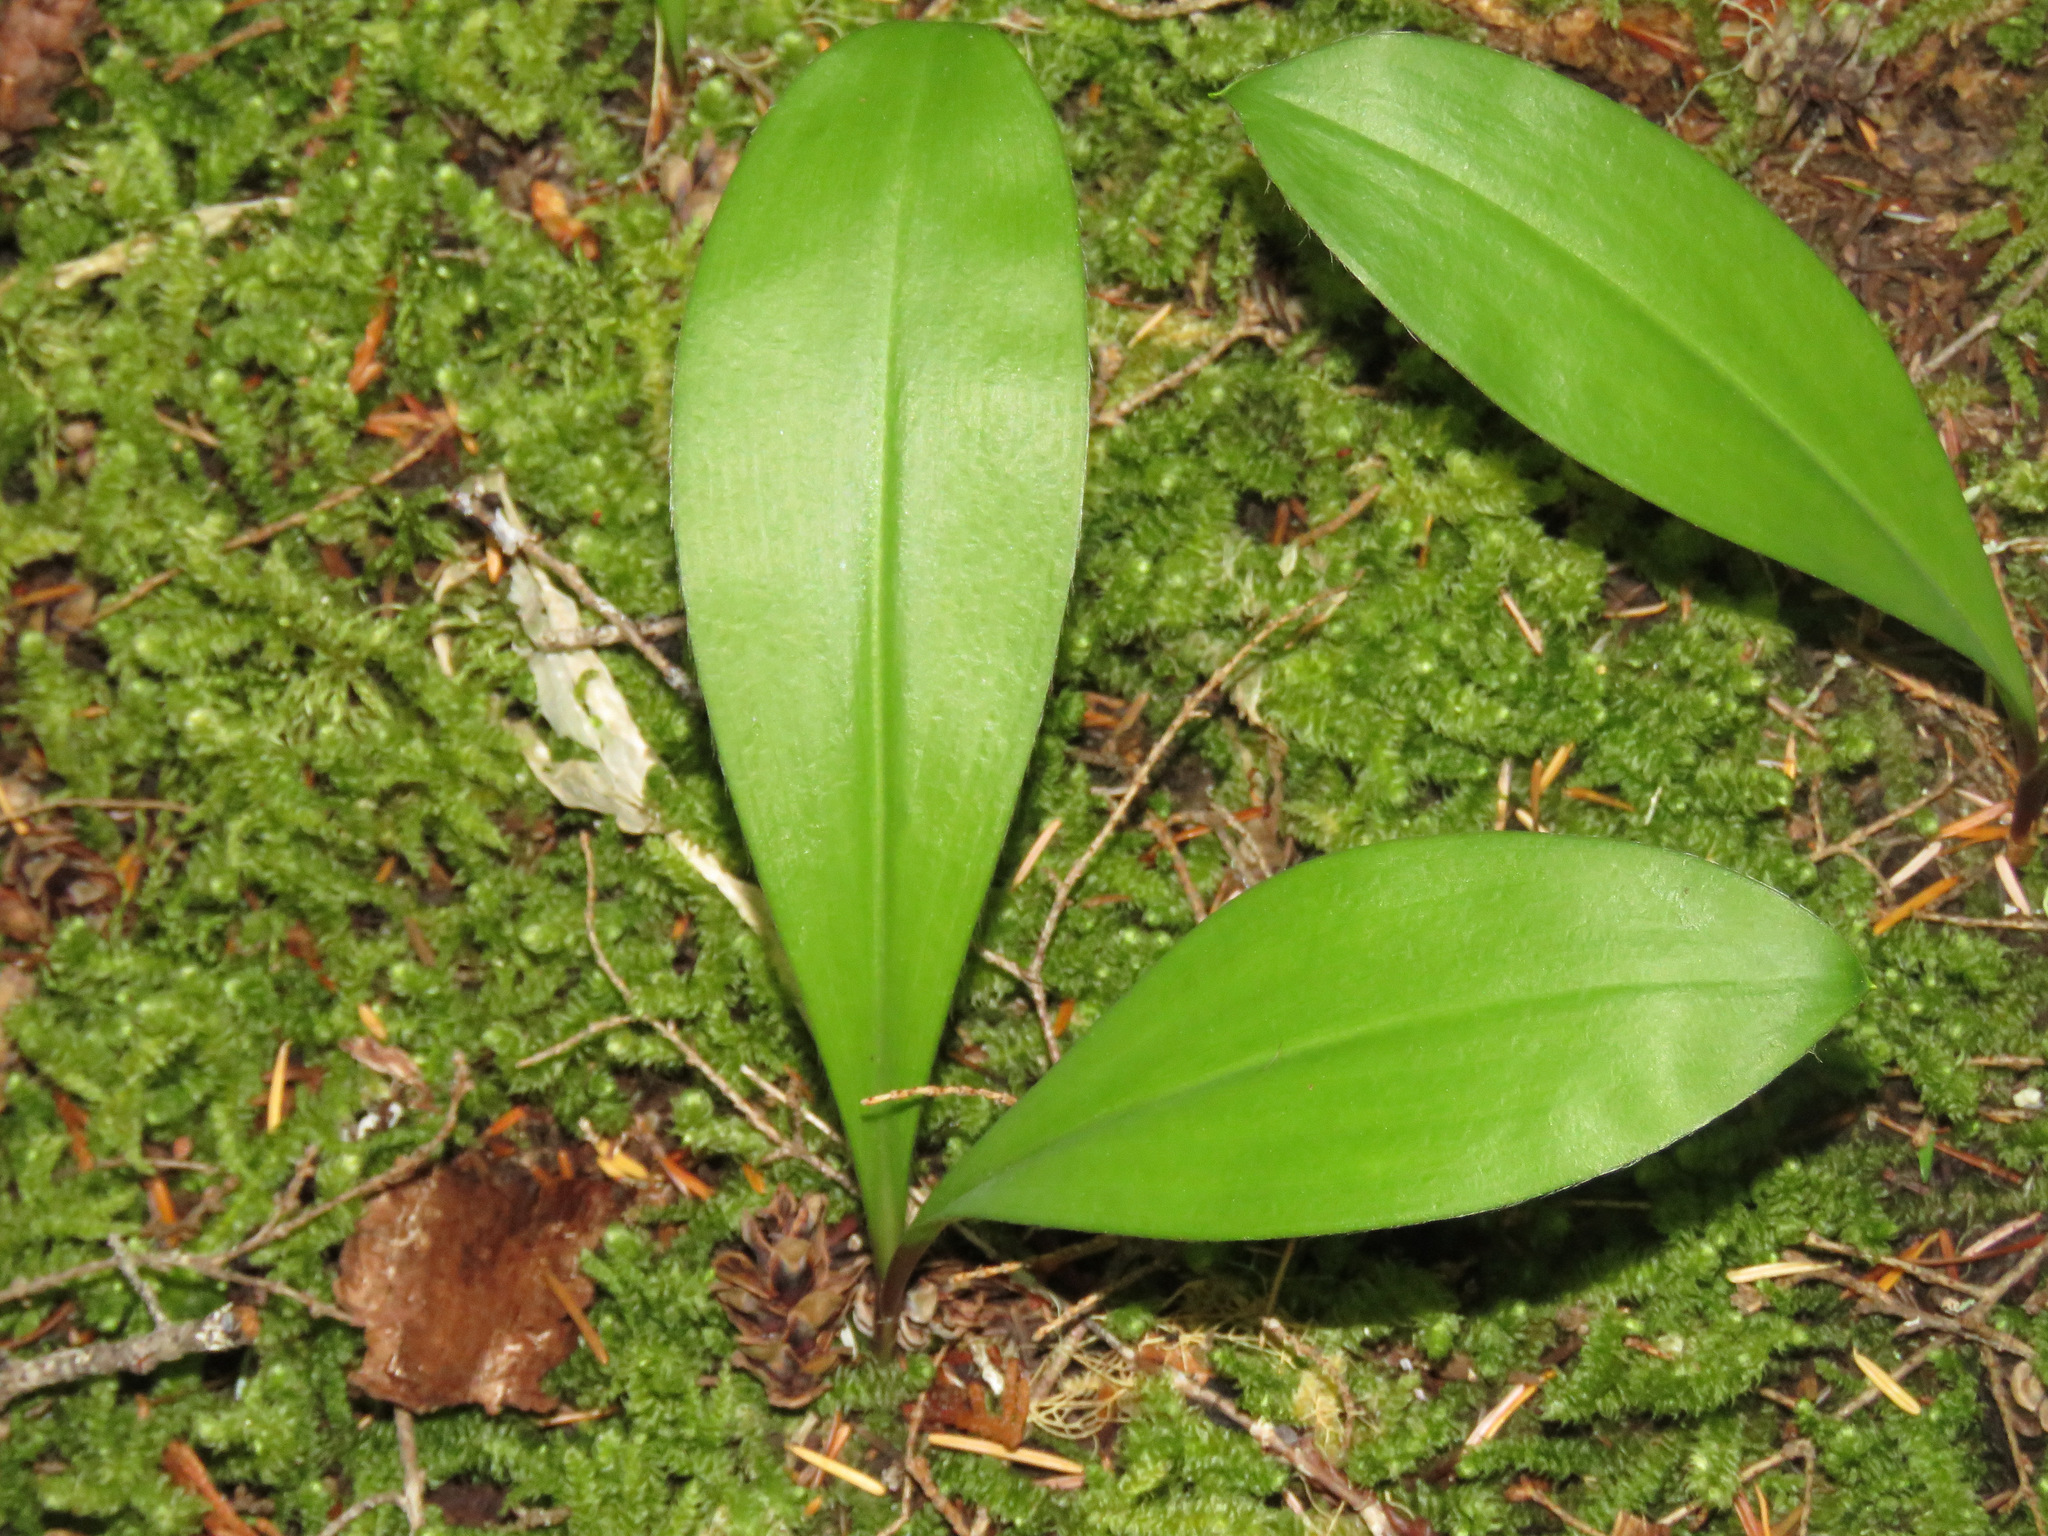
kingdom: Plantae
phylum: Tracheophyta
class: Liliopsida
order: Liliales
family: Liliaceae
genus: Clintonia
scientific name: Clintonia uniflora
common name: Queen's cup
